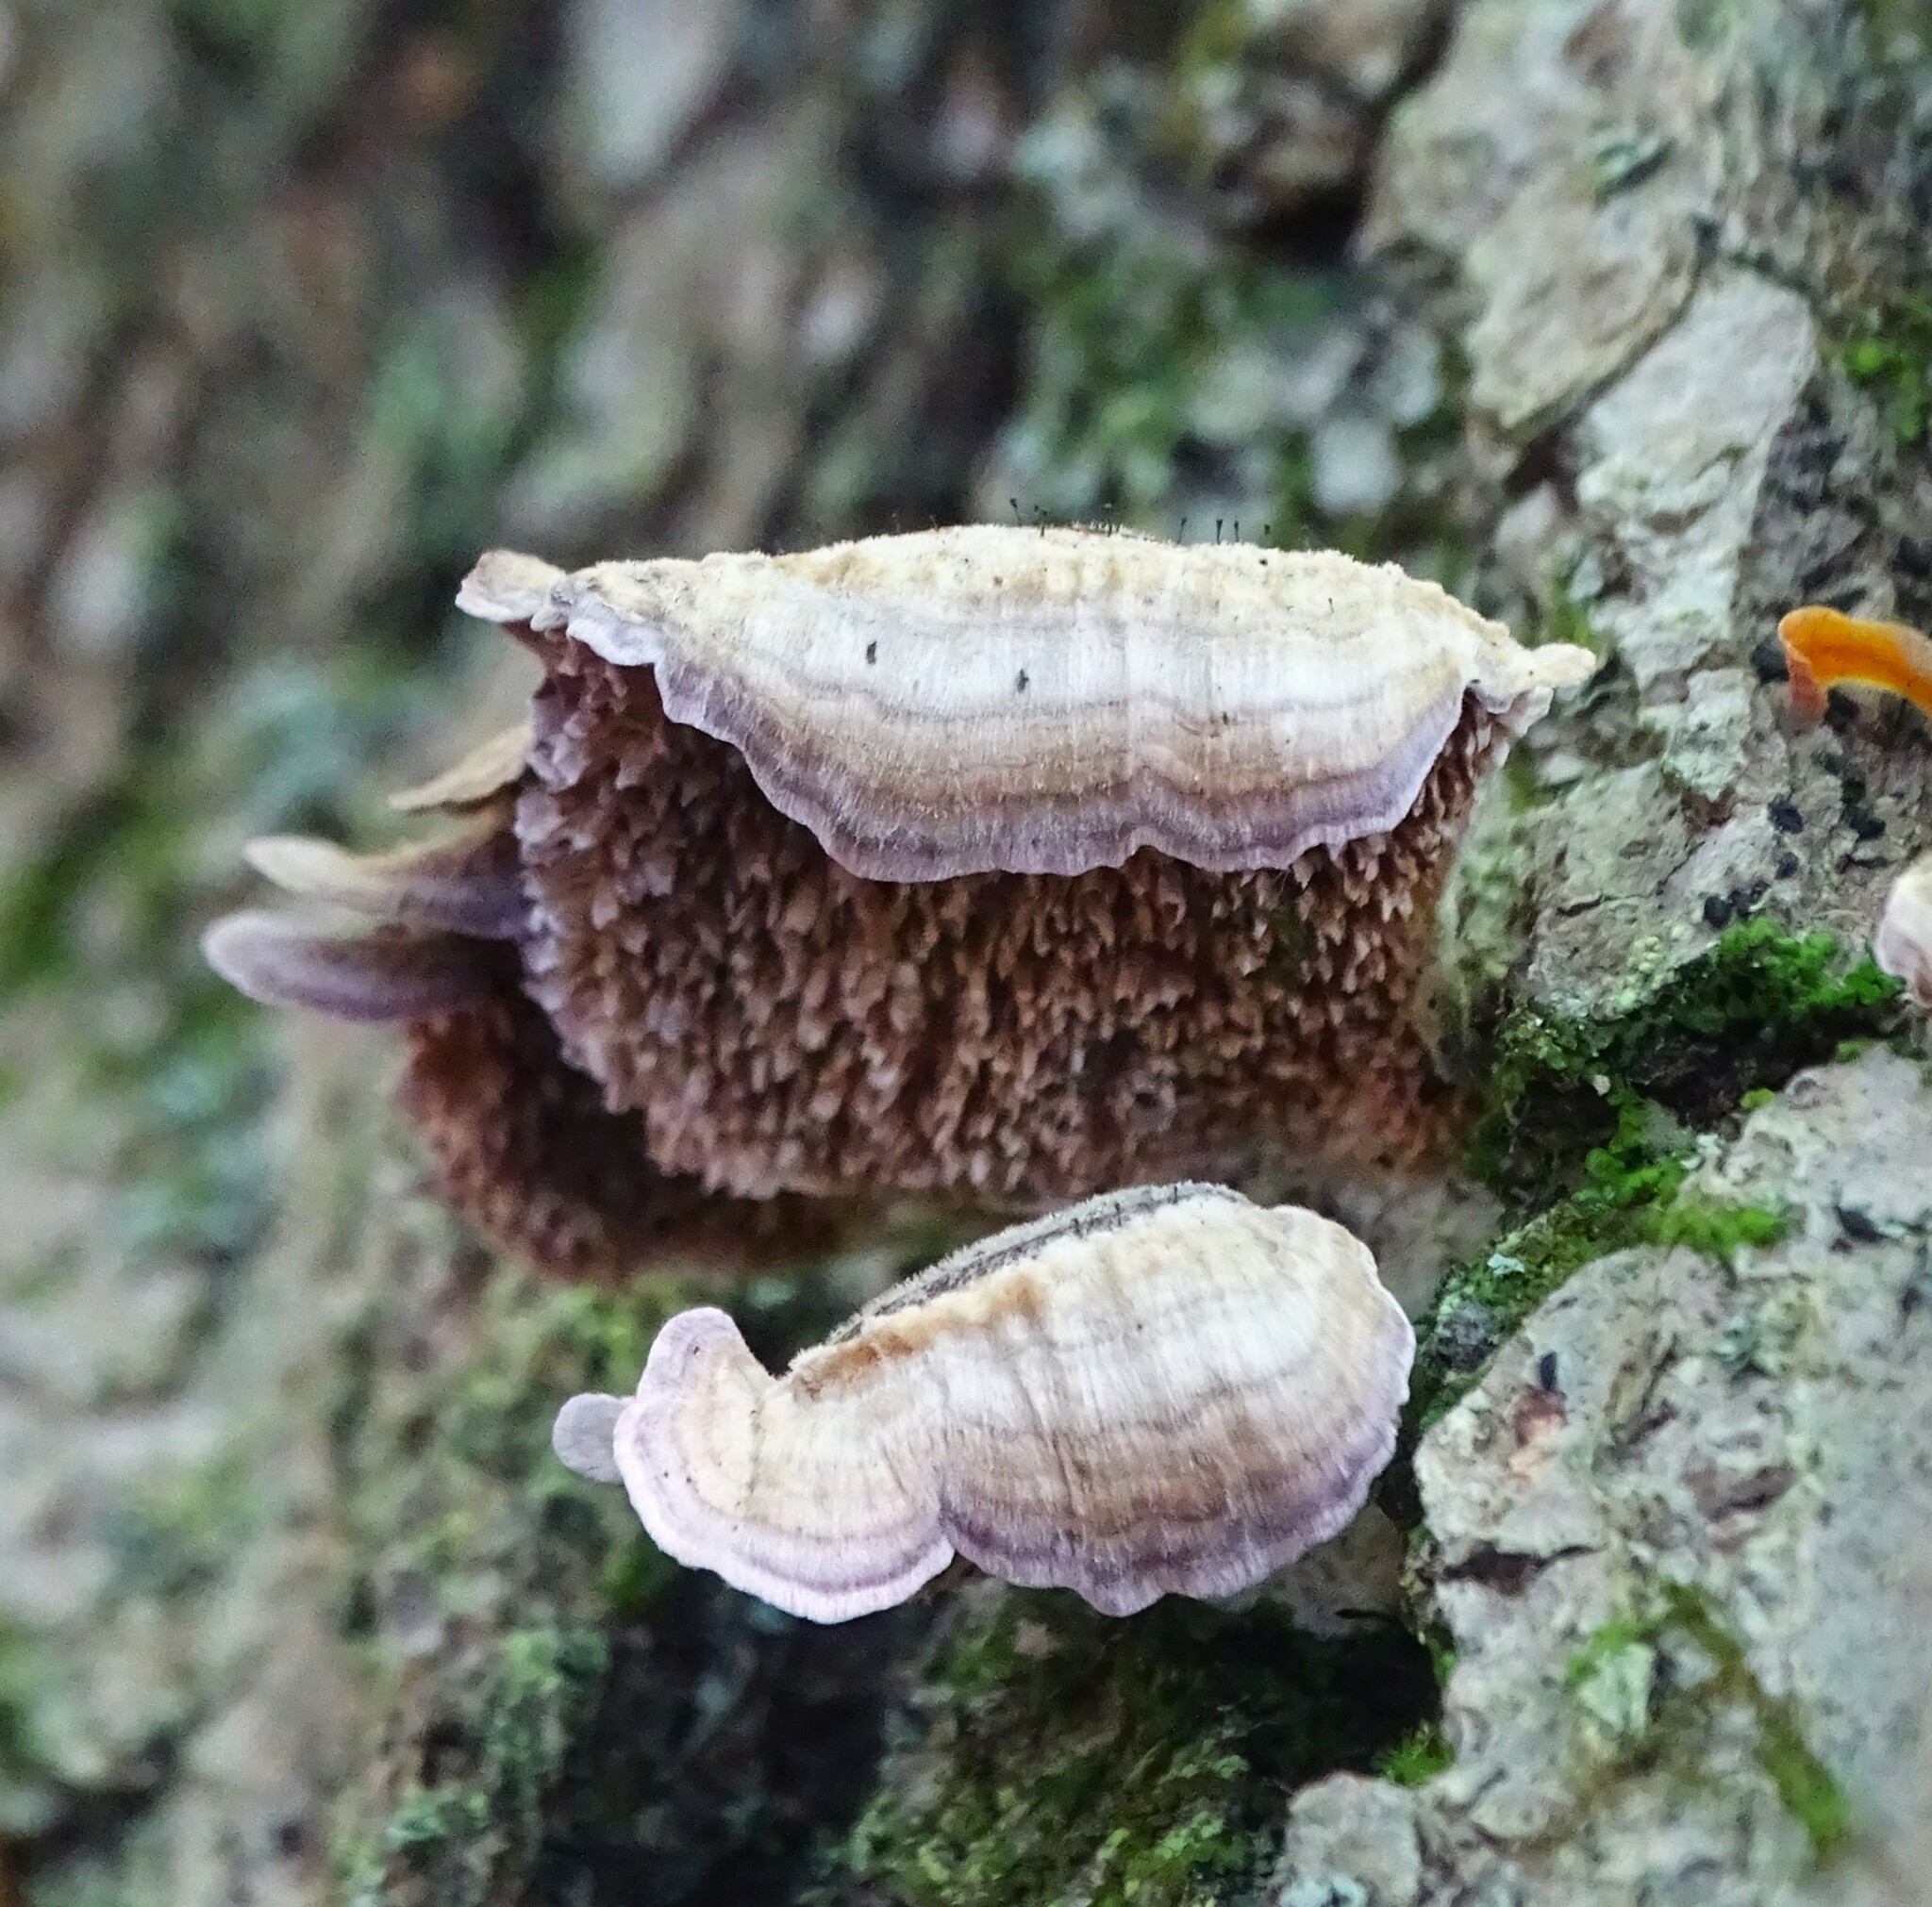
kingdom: Fungi
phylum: Basidiomycota
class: Agaricomycetes
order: Hymenochaetales
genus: Trichaptum
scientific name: Trichaptum biforme
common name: Violet-toothed polypore
